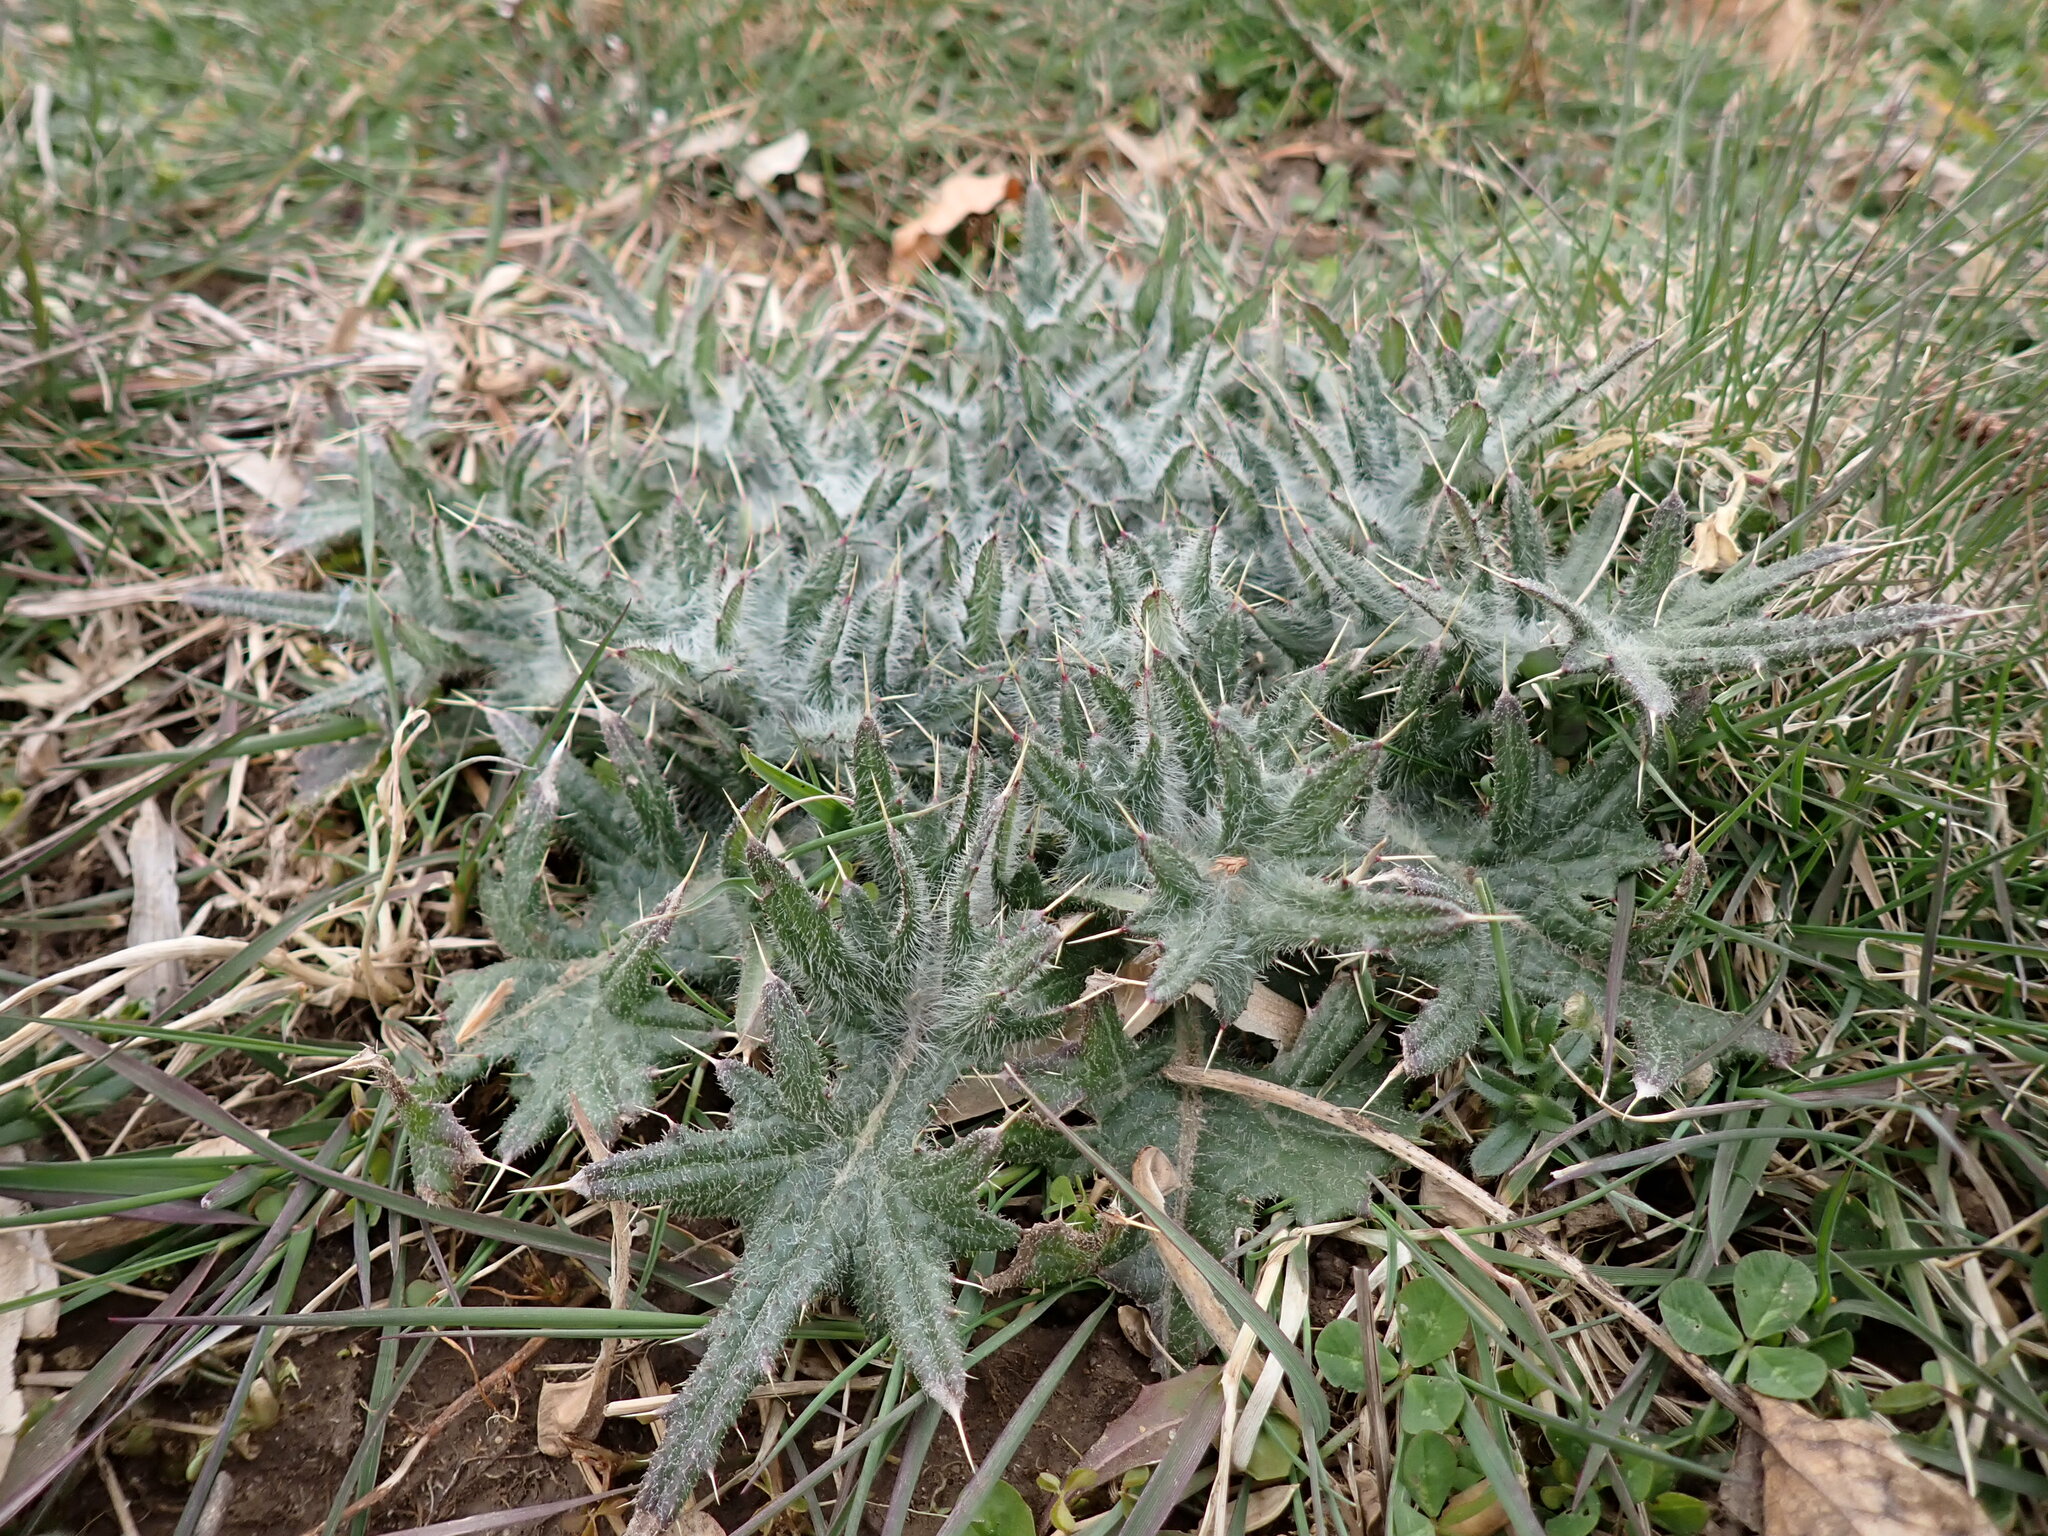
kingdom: Plantae
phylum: Tracheophyta
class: Magnoliopsida
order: Asterales
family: Asteraceae
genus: Cirsium
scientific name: Cirsium vulgare
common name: Bull thistle
